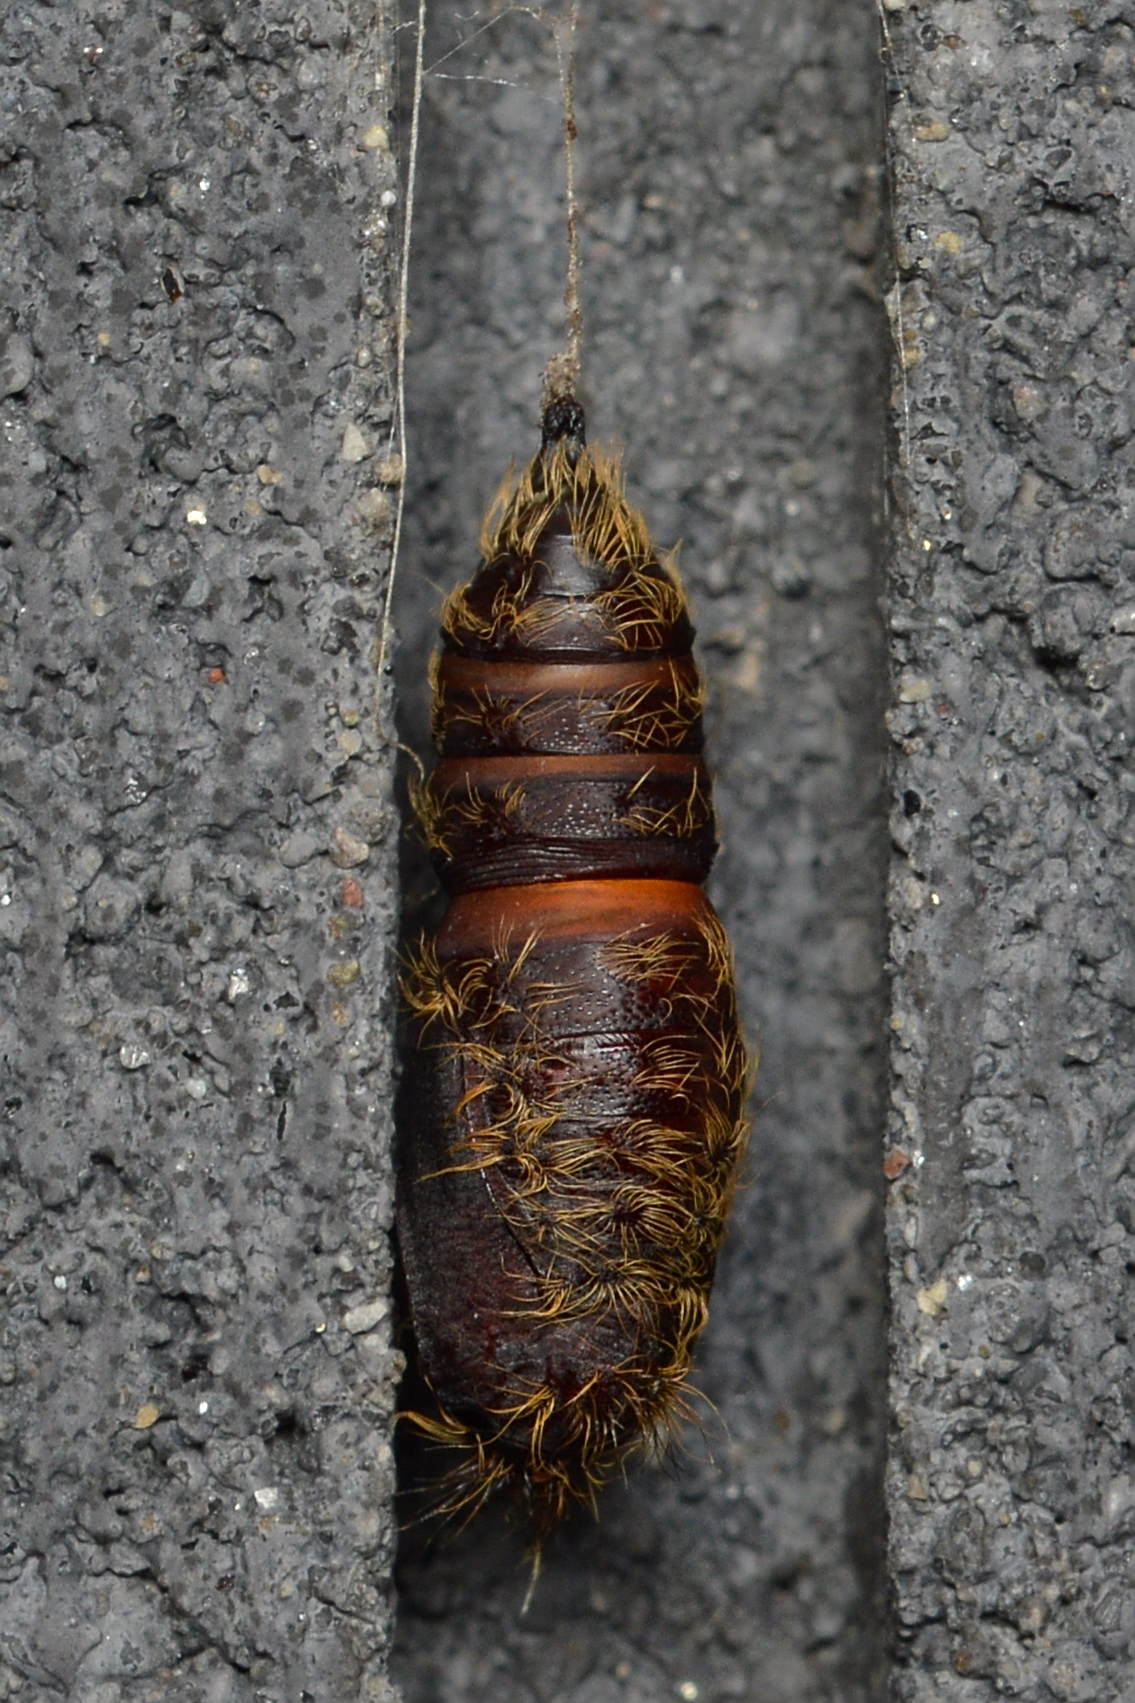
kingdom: Animalia
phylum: Arthropoda
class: Insecta
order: Lepidoptera
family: Erebidae
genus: Lymantria
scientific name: Lymantria dispar
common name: Gypsy moth
